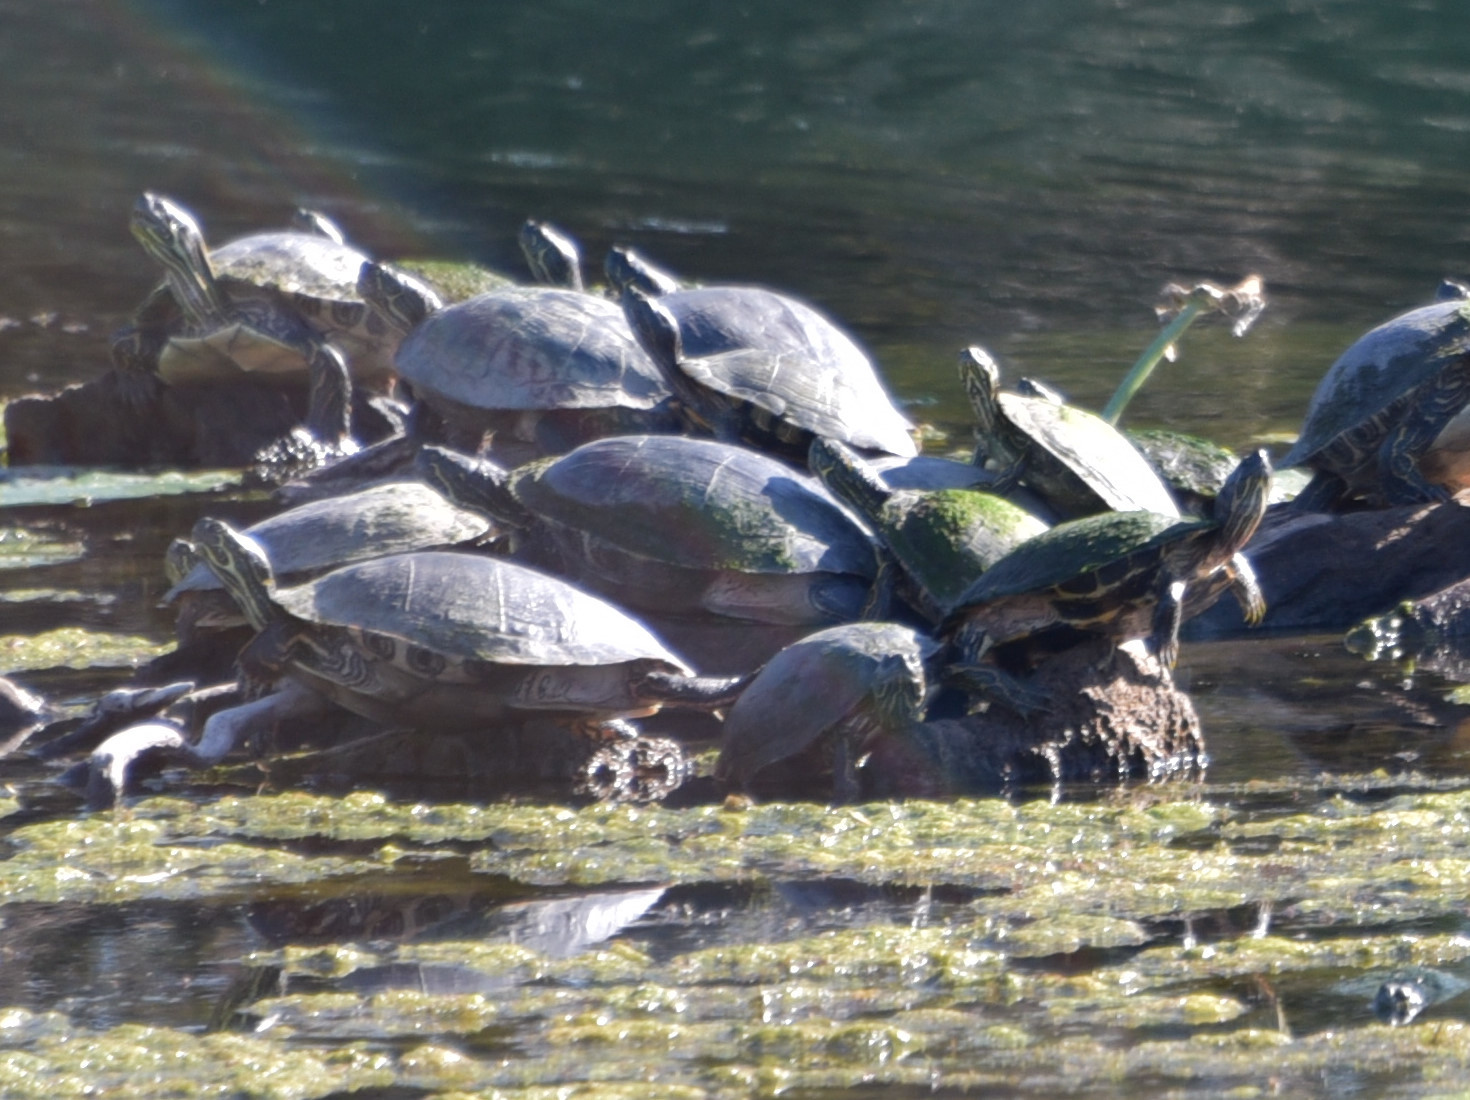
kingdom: Animalia
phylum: Chordata
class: Testudines
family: Emydidae
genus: Pseudemys
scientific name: Pseudemys texana
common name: Texas river cooter
